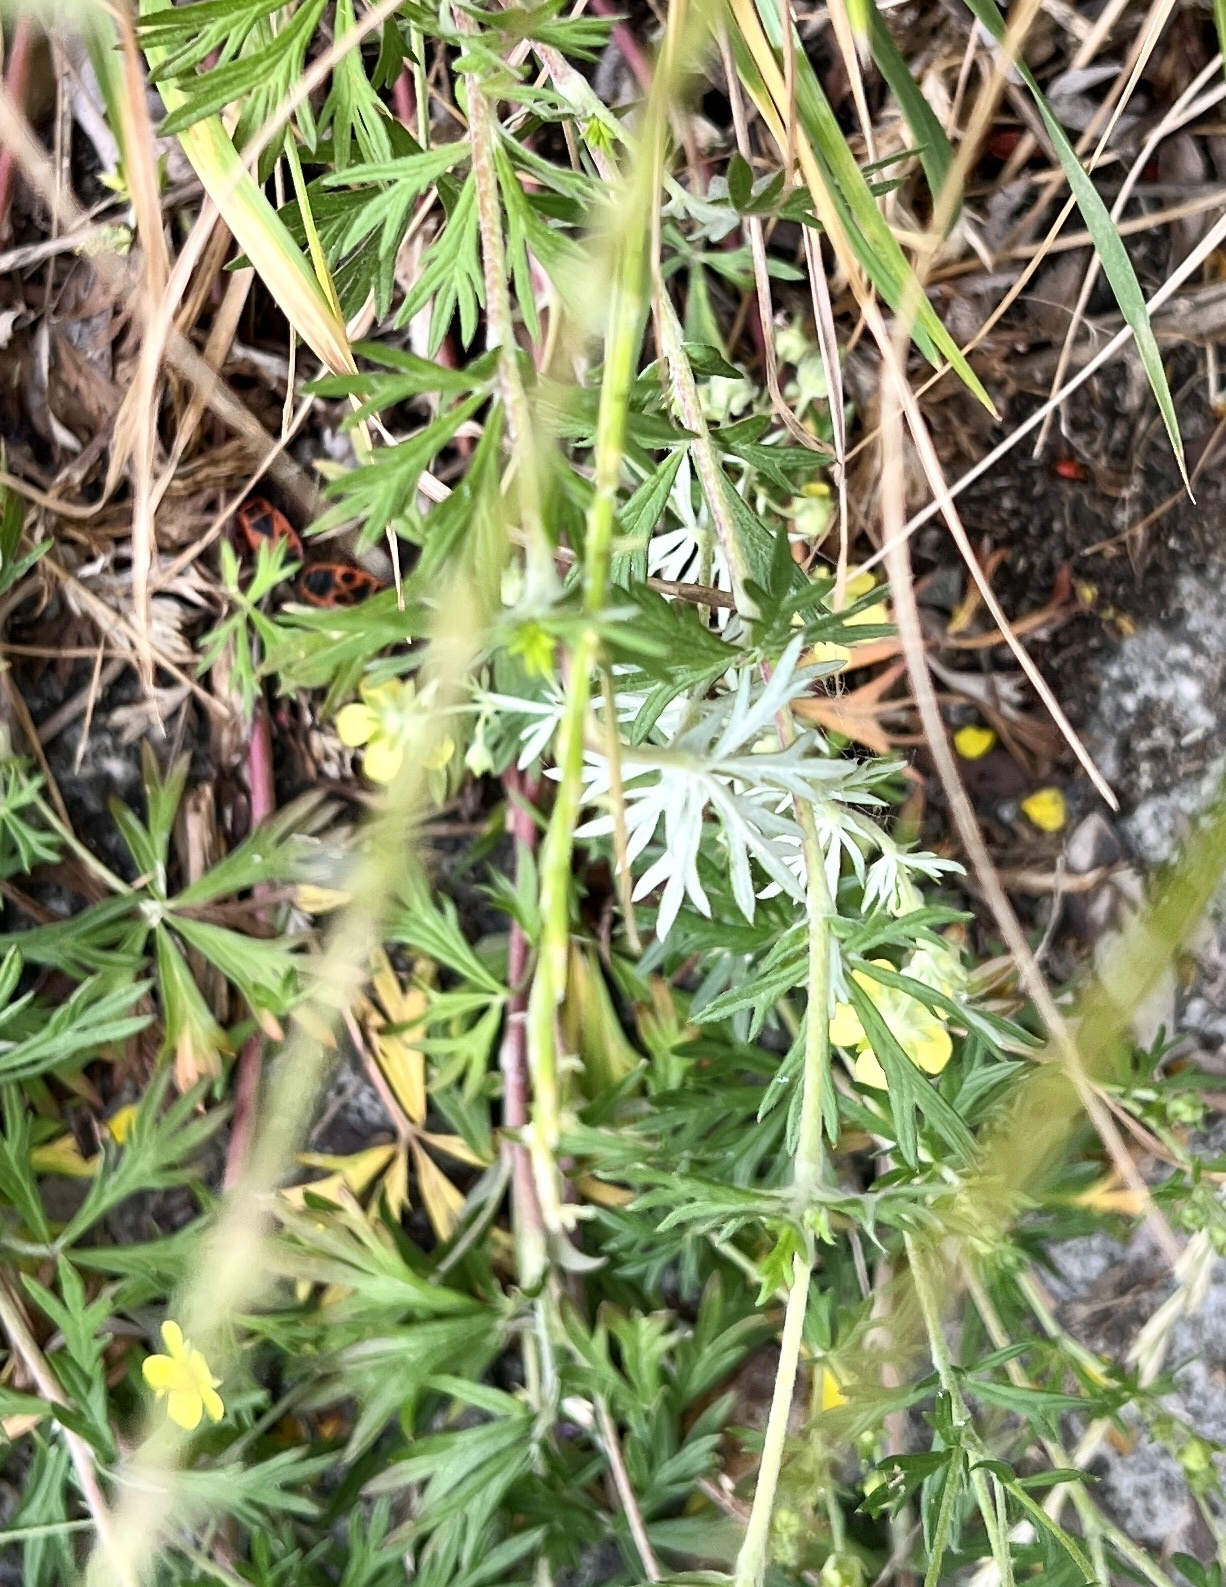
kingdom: Plantae
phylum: Tracheophyta
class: Magnoliopsida
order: Rosales
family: Rosaceae
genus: Potentilla
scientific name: Potentilla argentea
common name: Hoary cinquefoil
